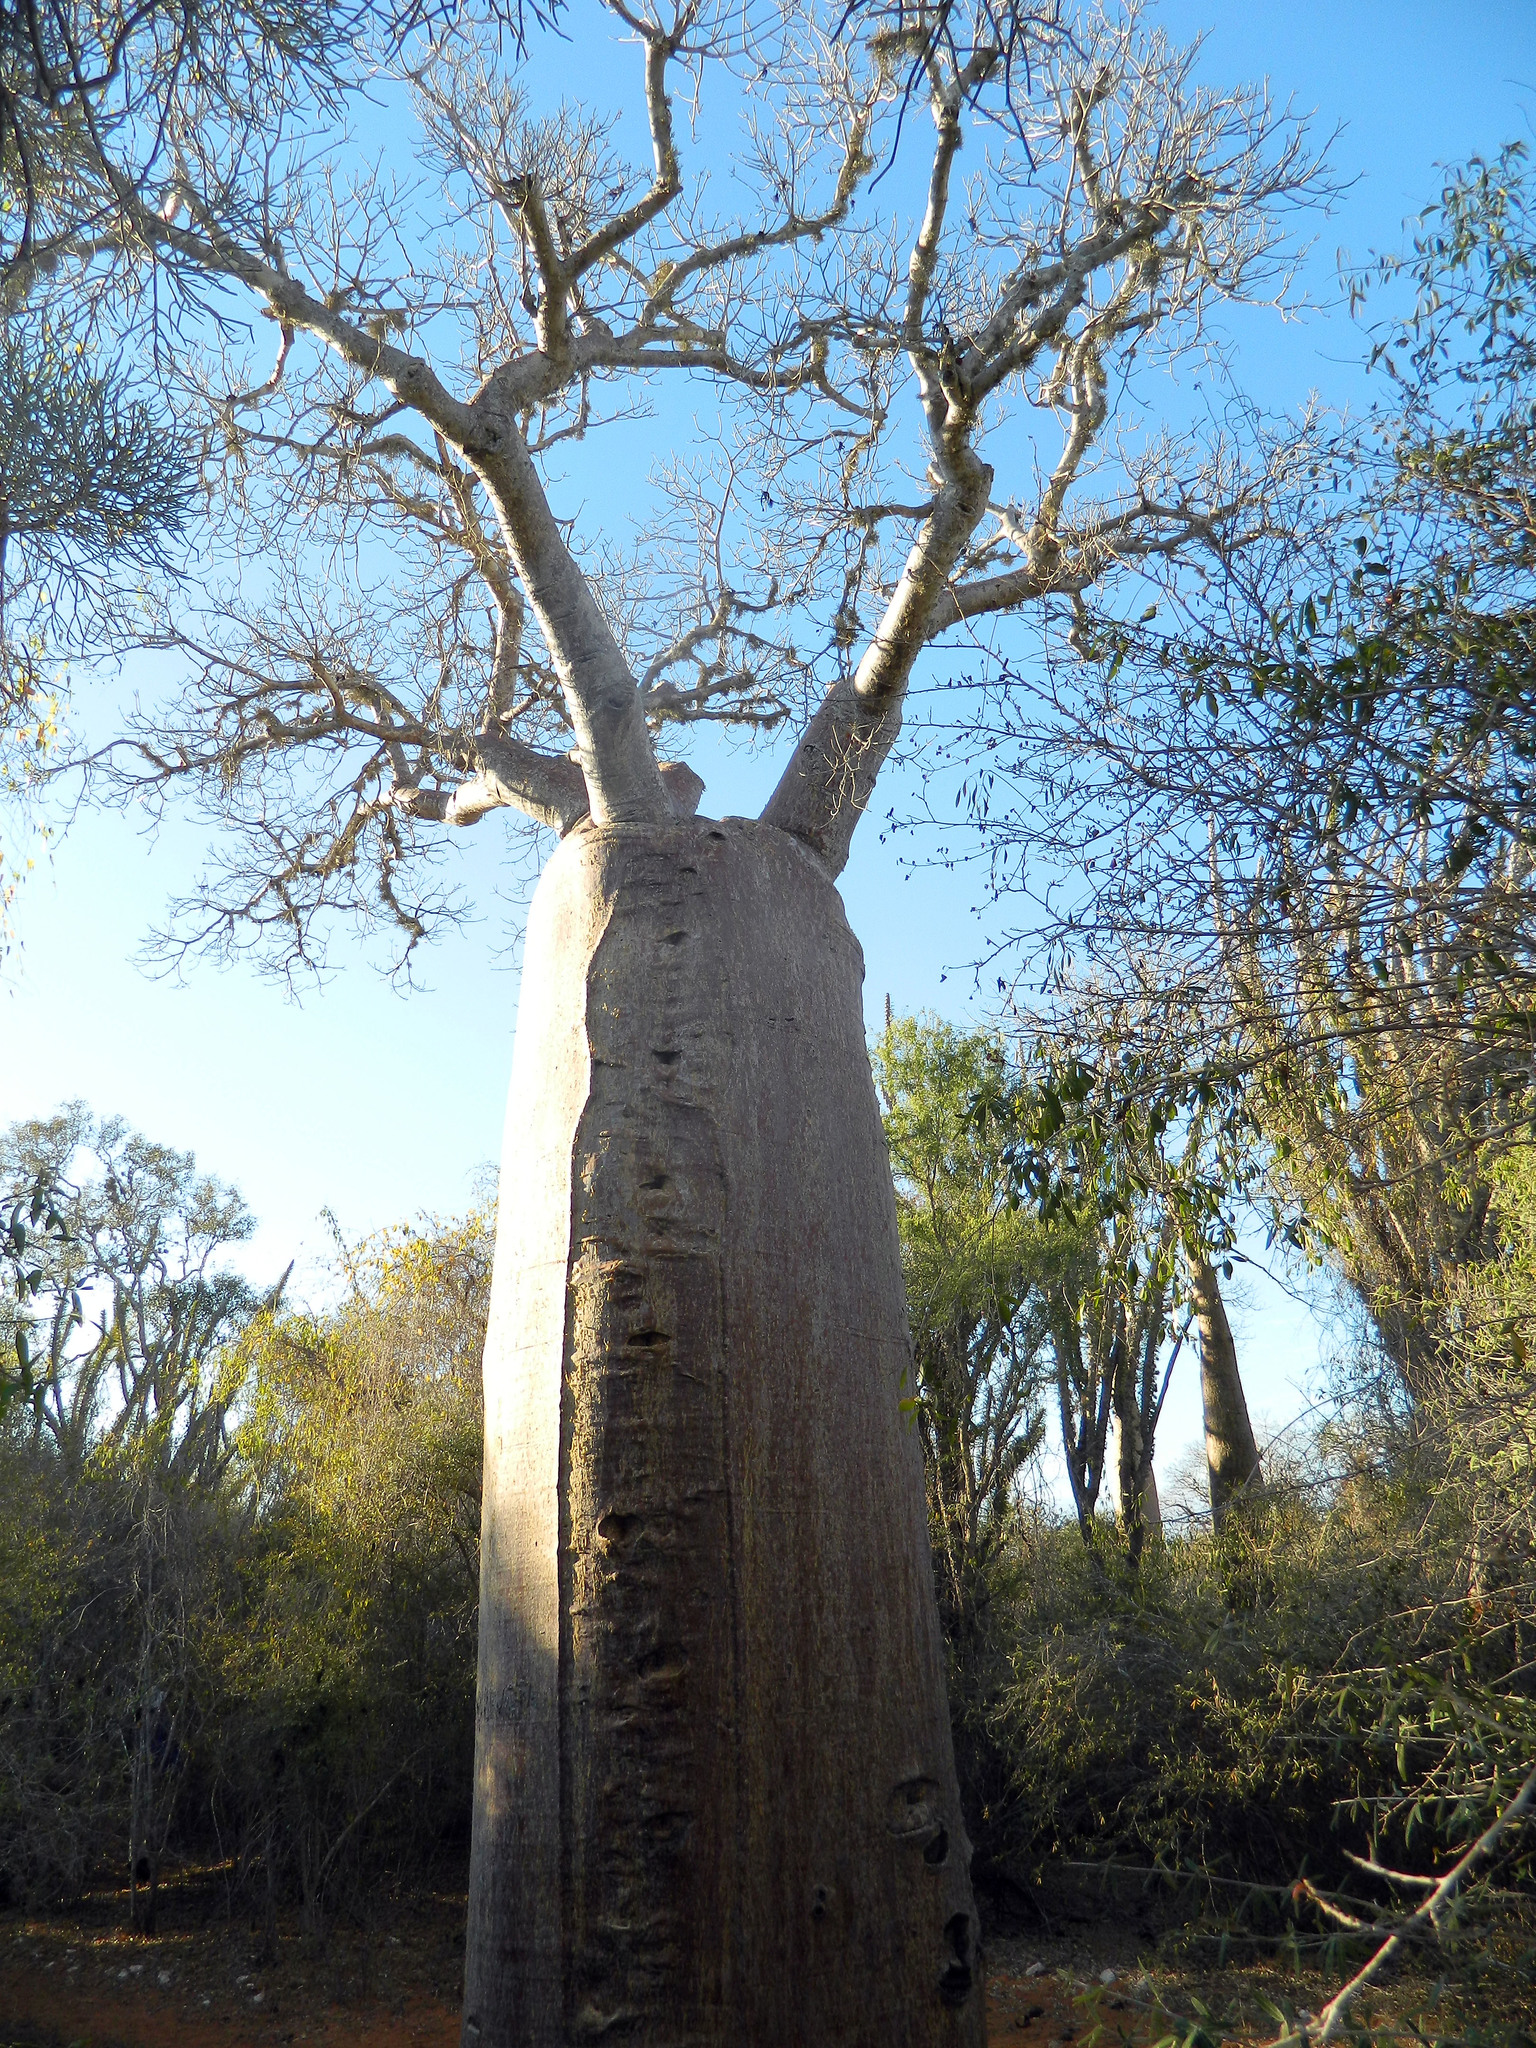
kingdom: Plantae
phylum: Tracheophyta
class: Magnoliopsida
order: Malvales
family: Malvaceae
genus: Adansonia
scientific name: Adansonia rubrostipa
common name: Fony baobab
